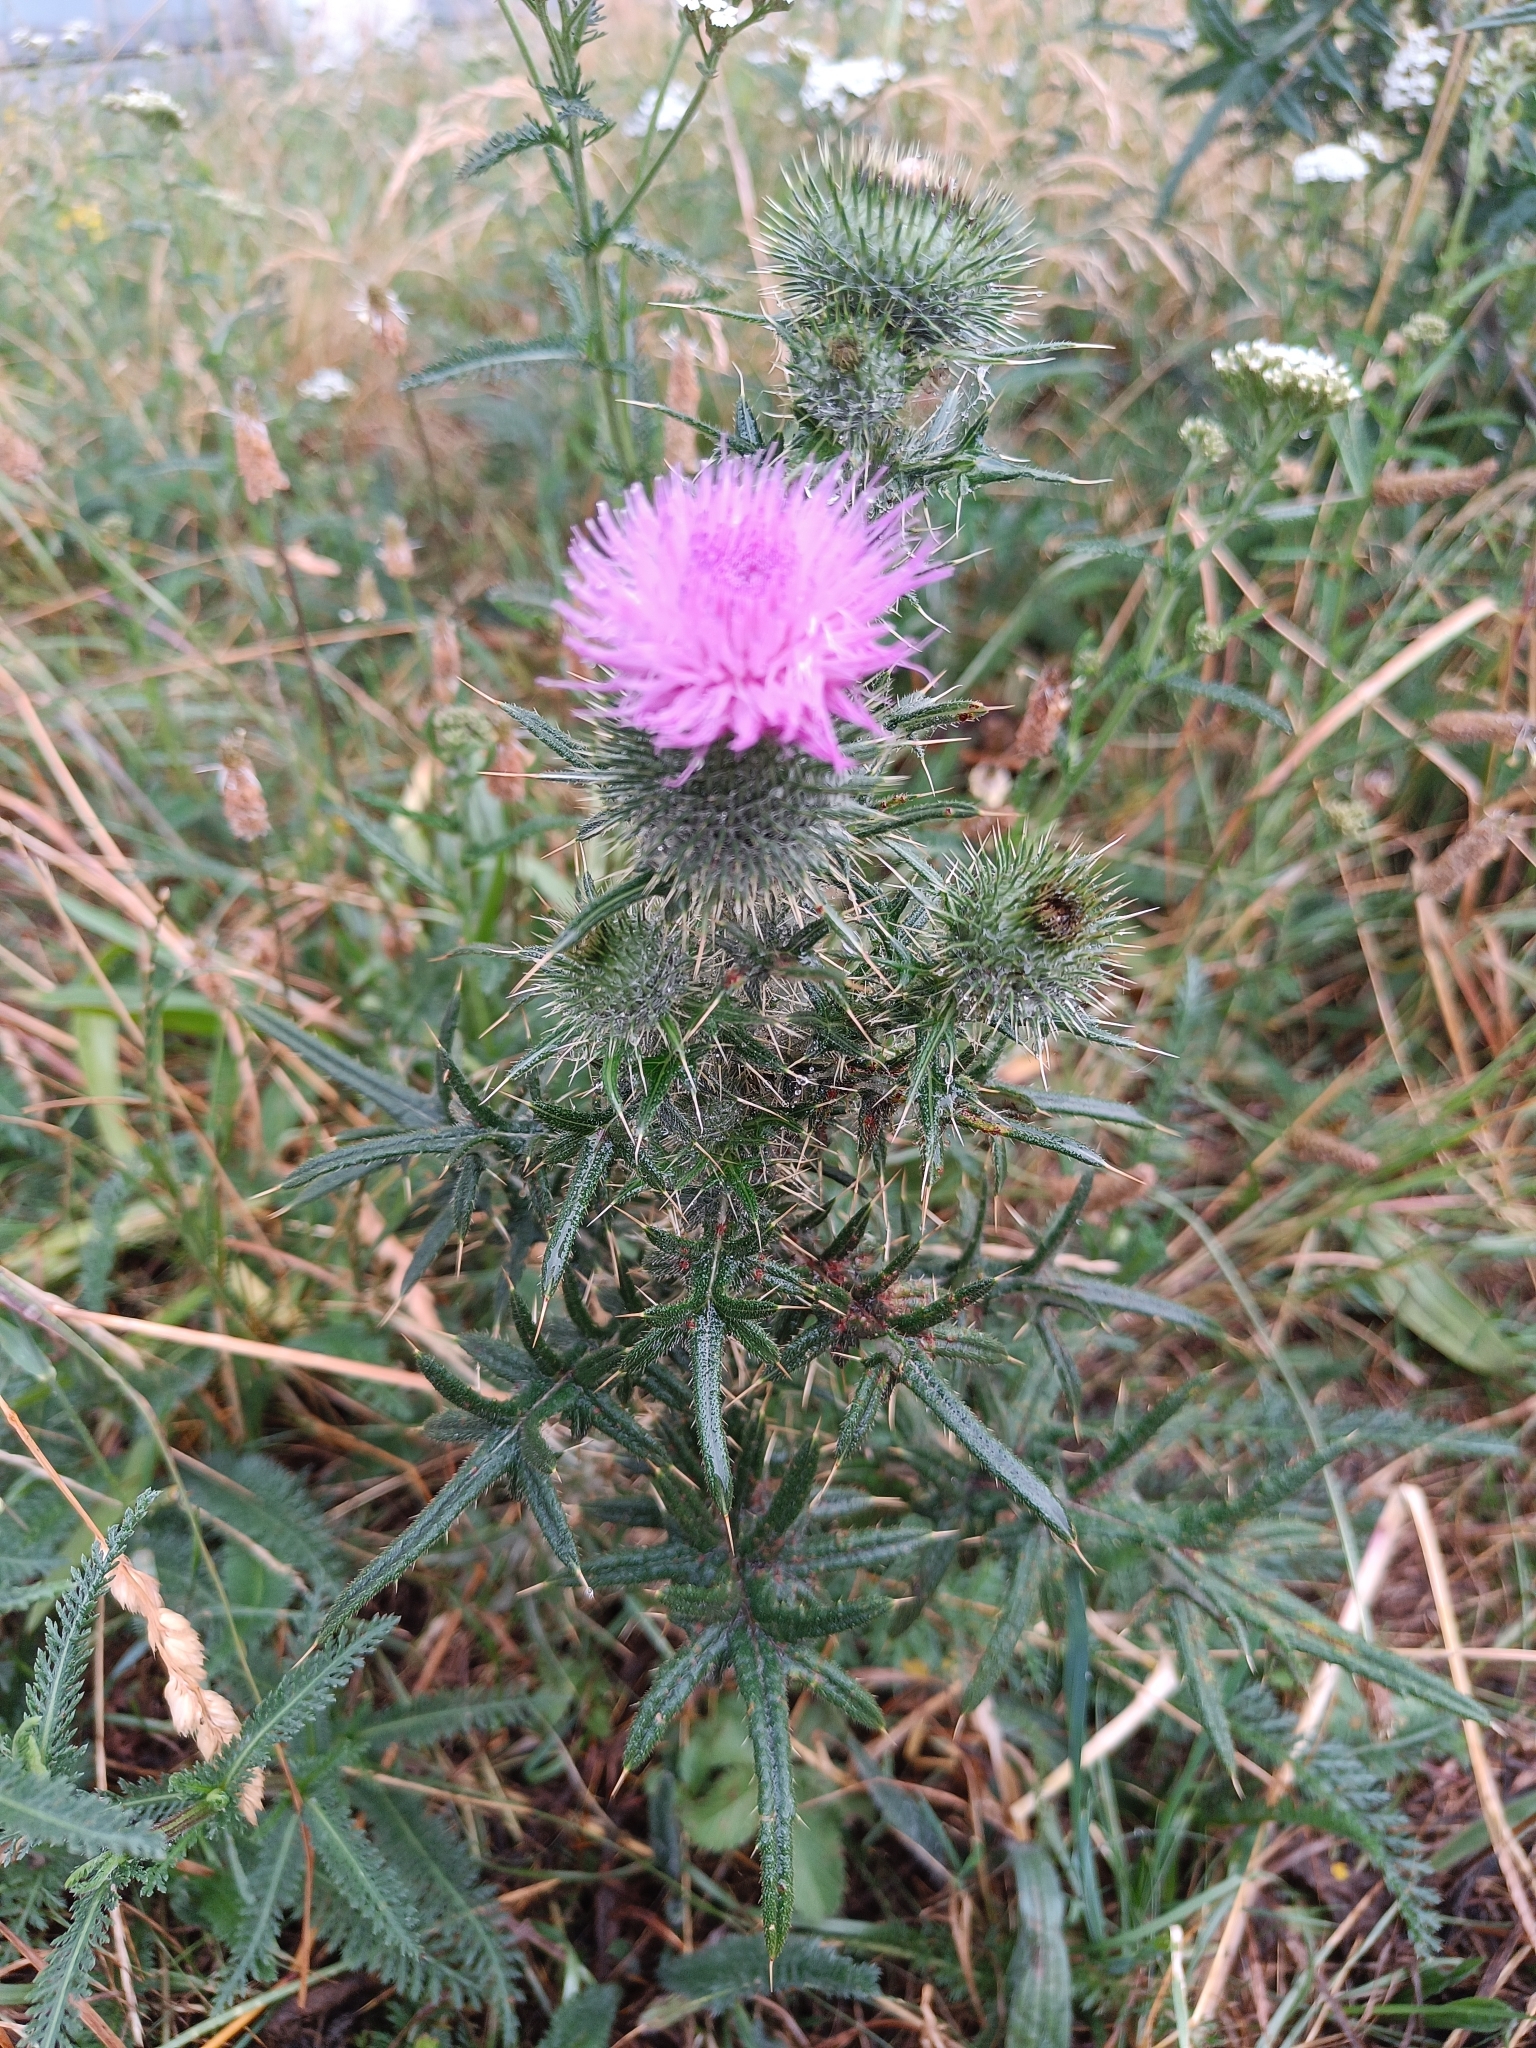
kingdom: Plantae
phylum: Tracheophyta
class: Magnoliopsida
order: Asterales
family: Asteraceae
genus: Cirsium
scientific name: Cirsium vulgare
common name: Bull thistle
